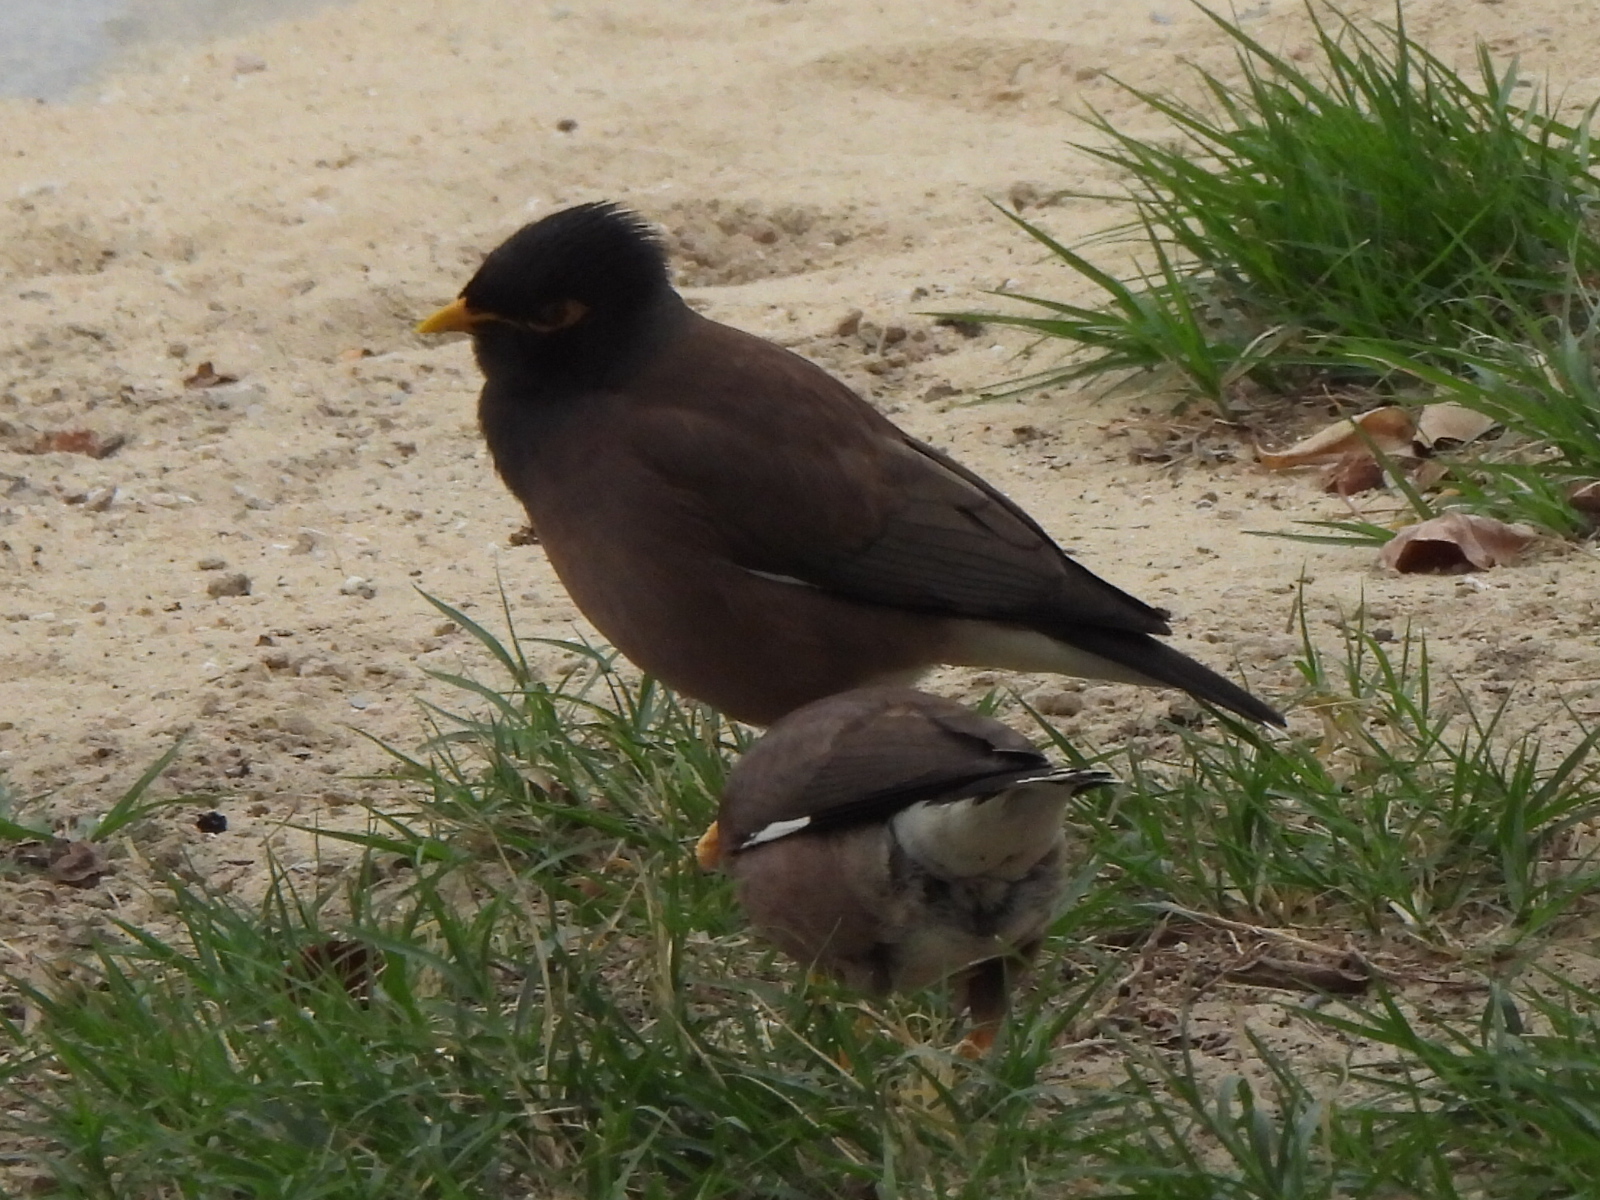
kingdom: Animalia
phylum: Chordata
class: Aves
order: Passeriformes
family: Sturnidae
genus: Acridotheres
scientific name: Acridotheres tristis
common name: Common myna
